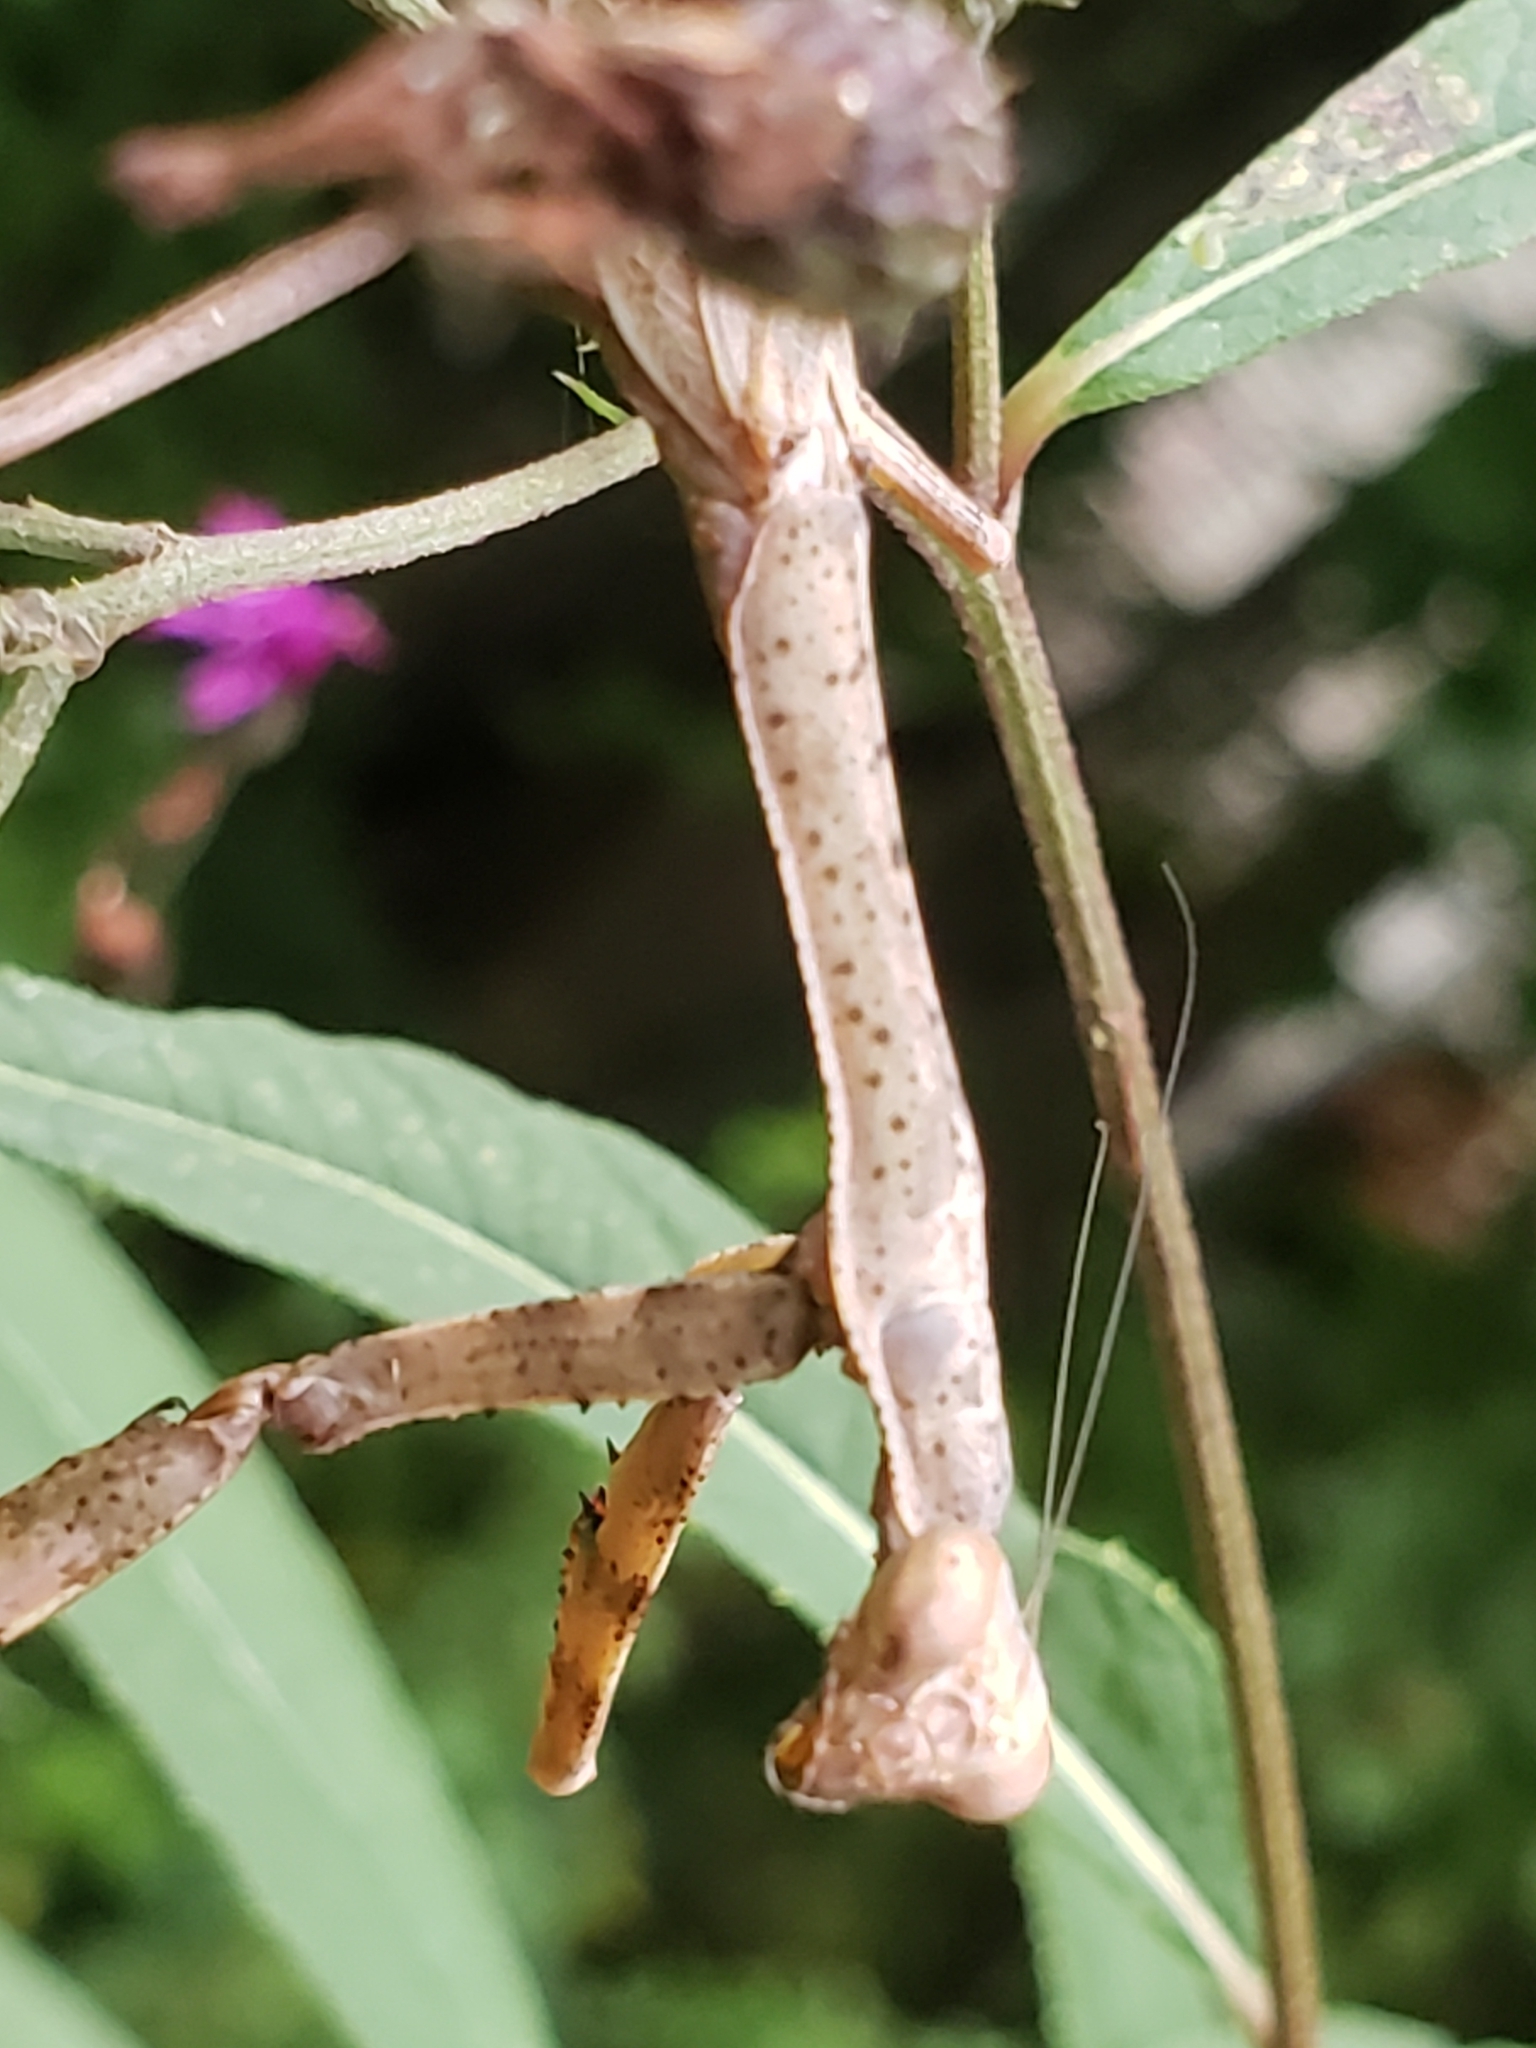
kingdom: Animalia
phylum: Arthropoda
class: Insecta
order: Mantodea
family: Mantidae
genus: Stagmomantis
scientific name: Stagmomantis carolina
